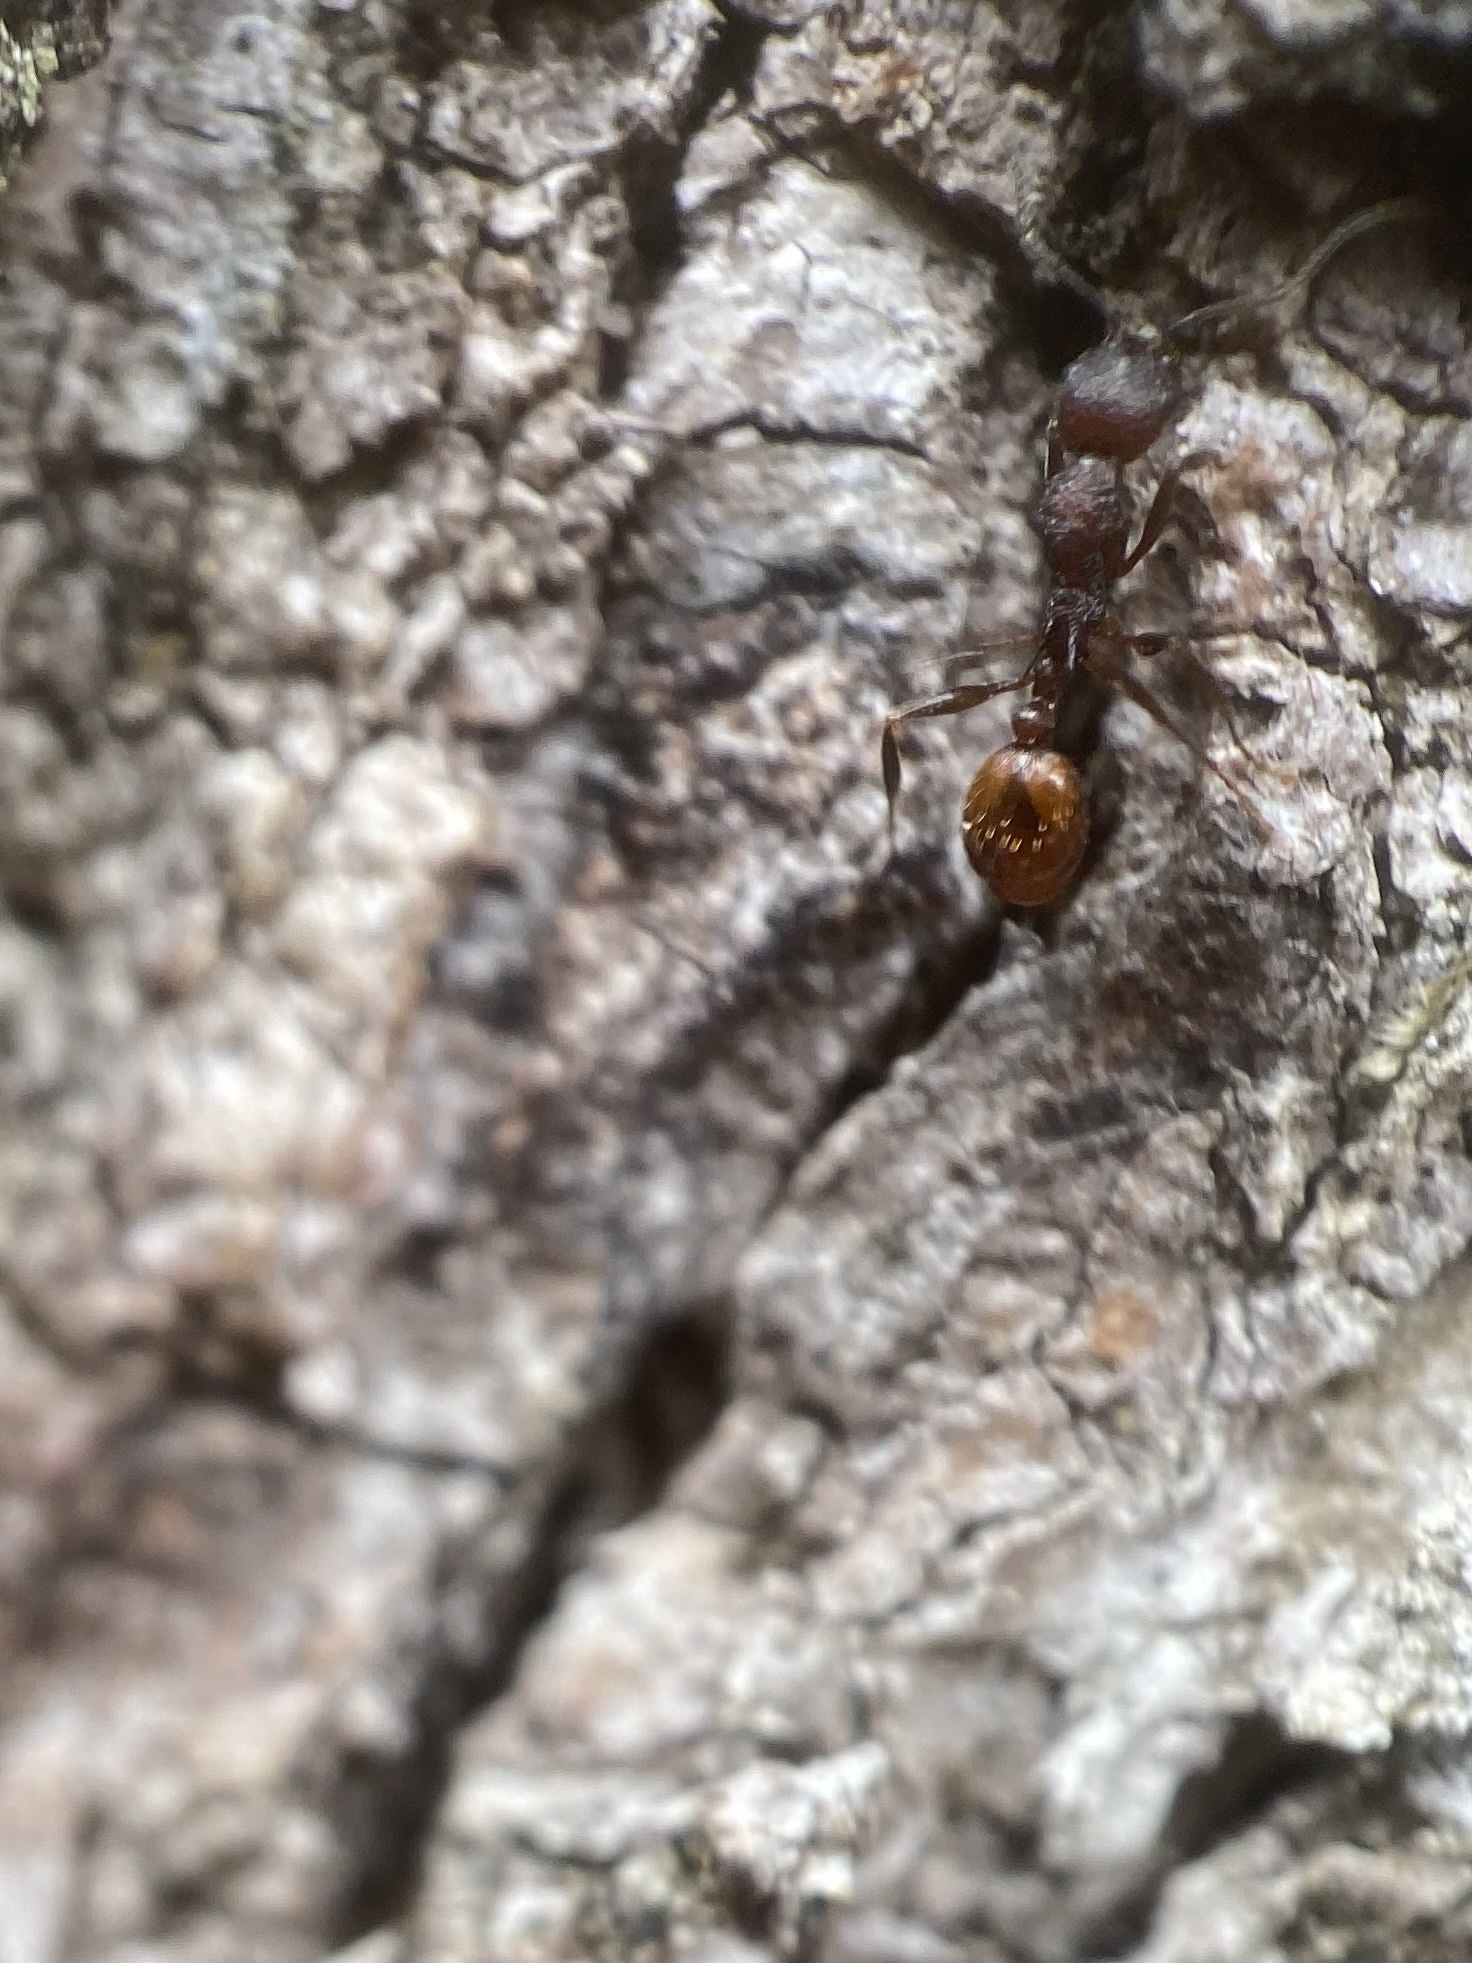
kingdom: Animalia
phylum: Arthropoda
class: Insecta
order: Hymenoptera
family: Formicidae
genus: Aphaenogaster
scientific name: Aphaenogaster mariae
